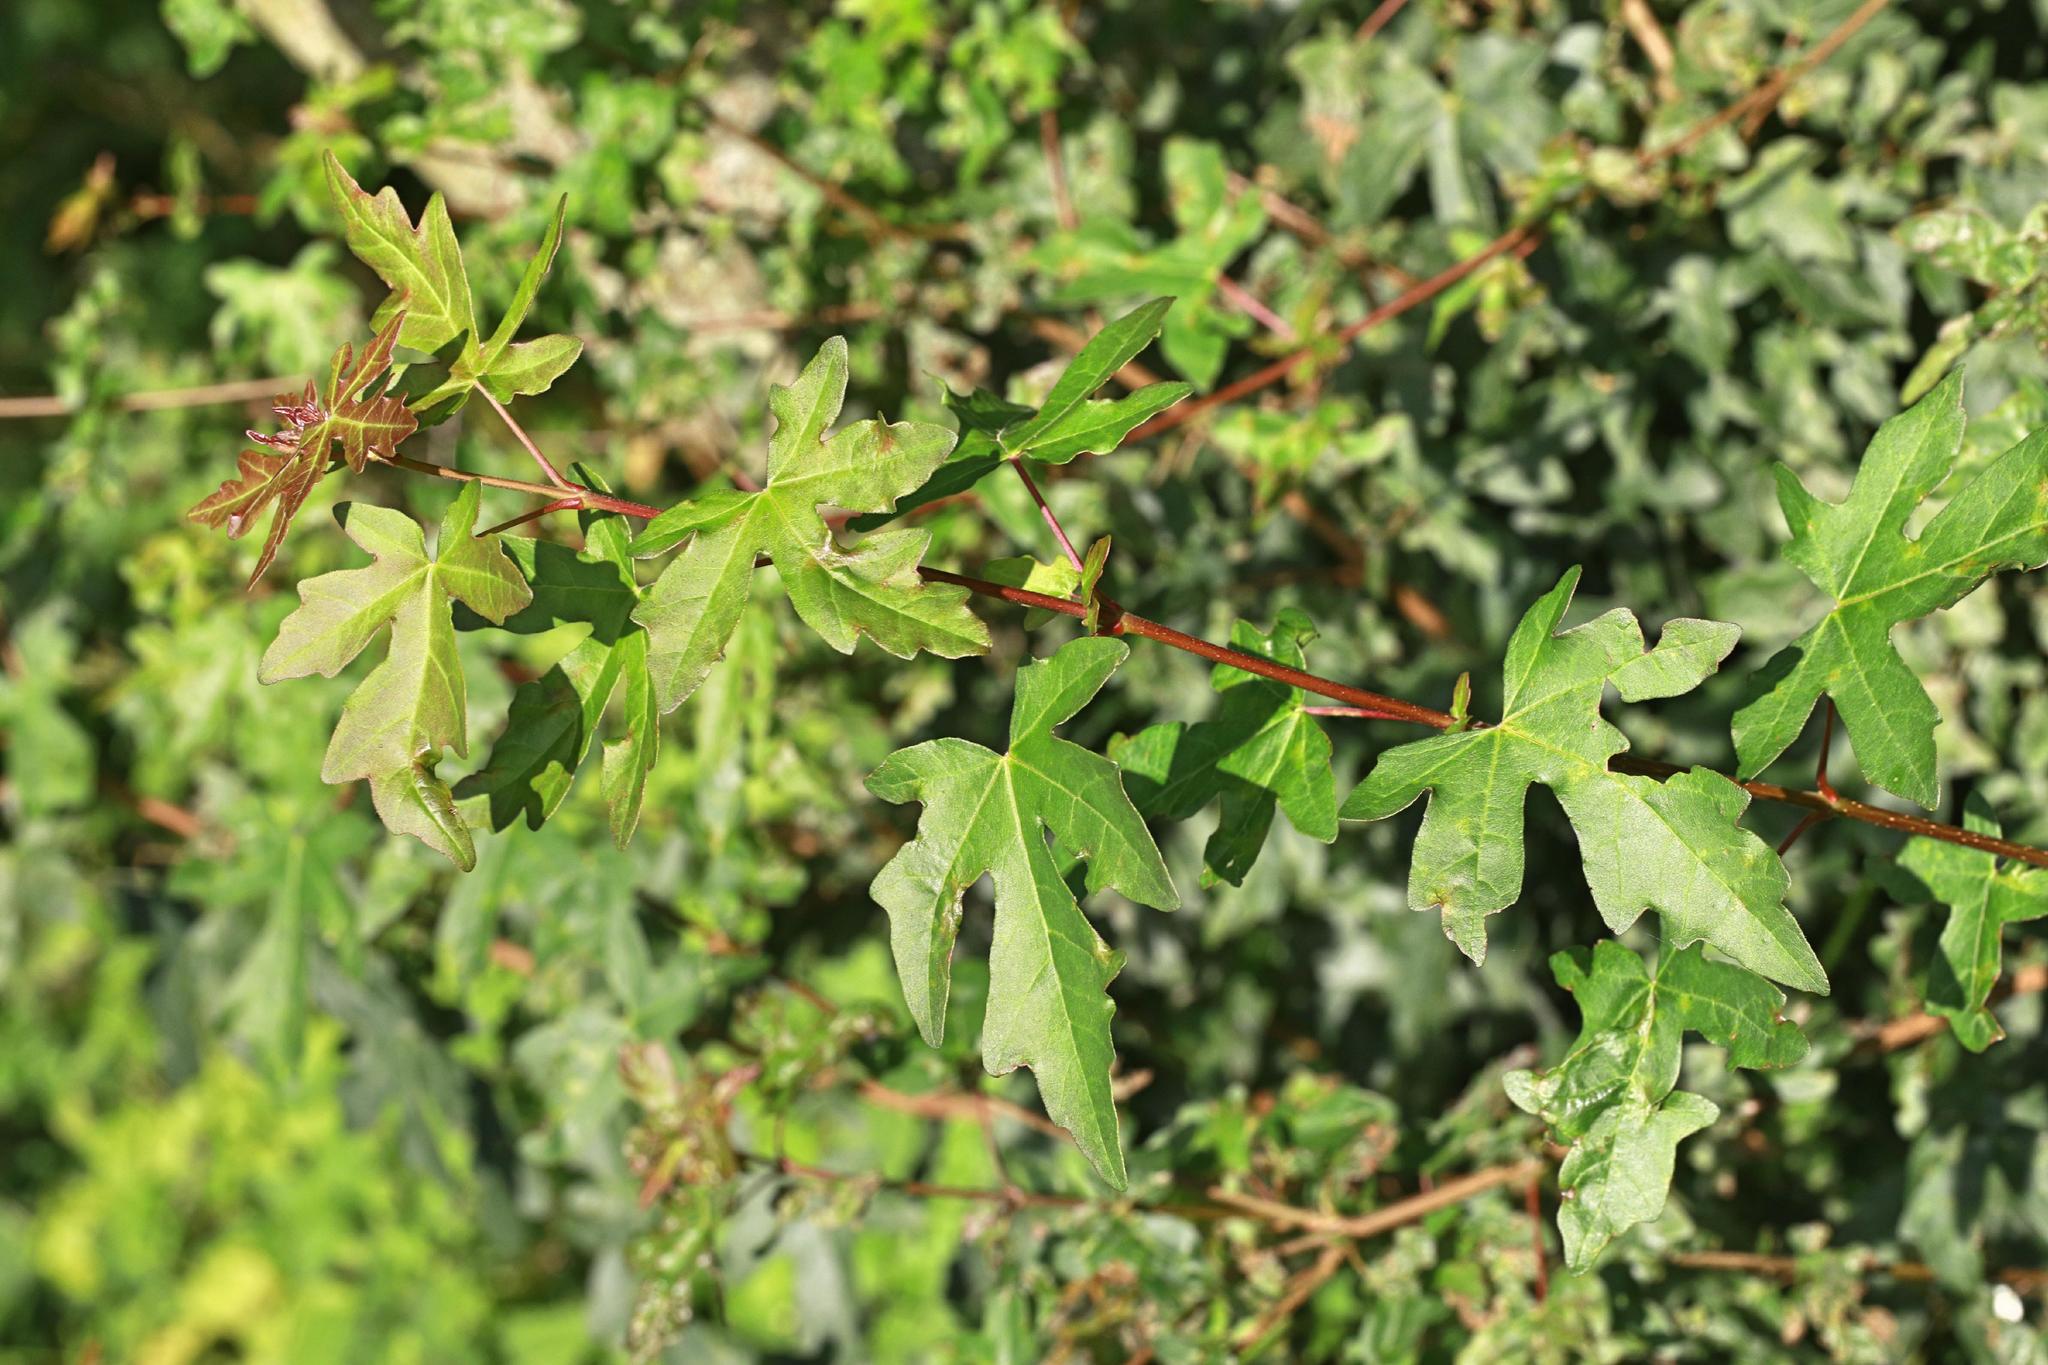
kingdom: Plantae
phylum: Tracheophyta
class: Magnoliopsida
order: Sapindales
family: Sapindaceae
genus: Acer
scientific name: Acer campestre
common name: Field maple
